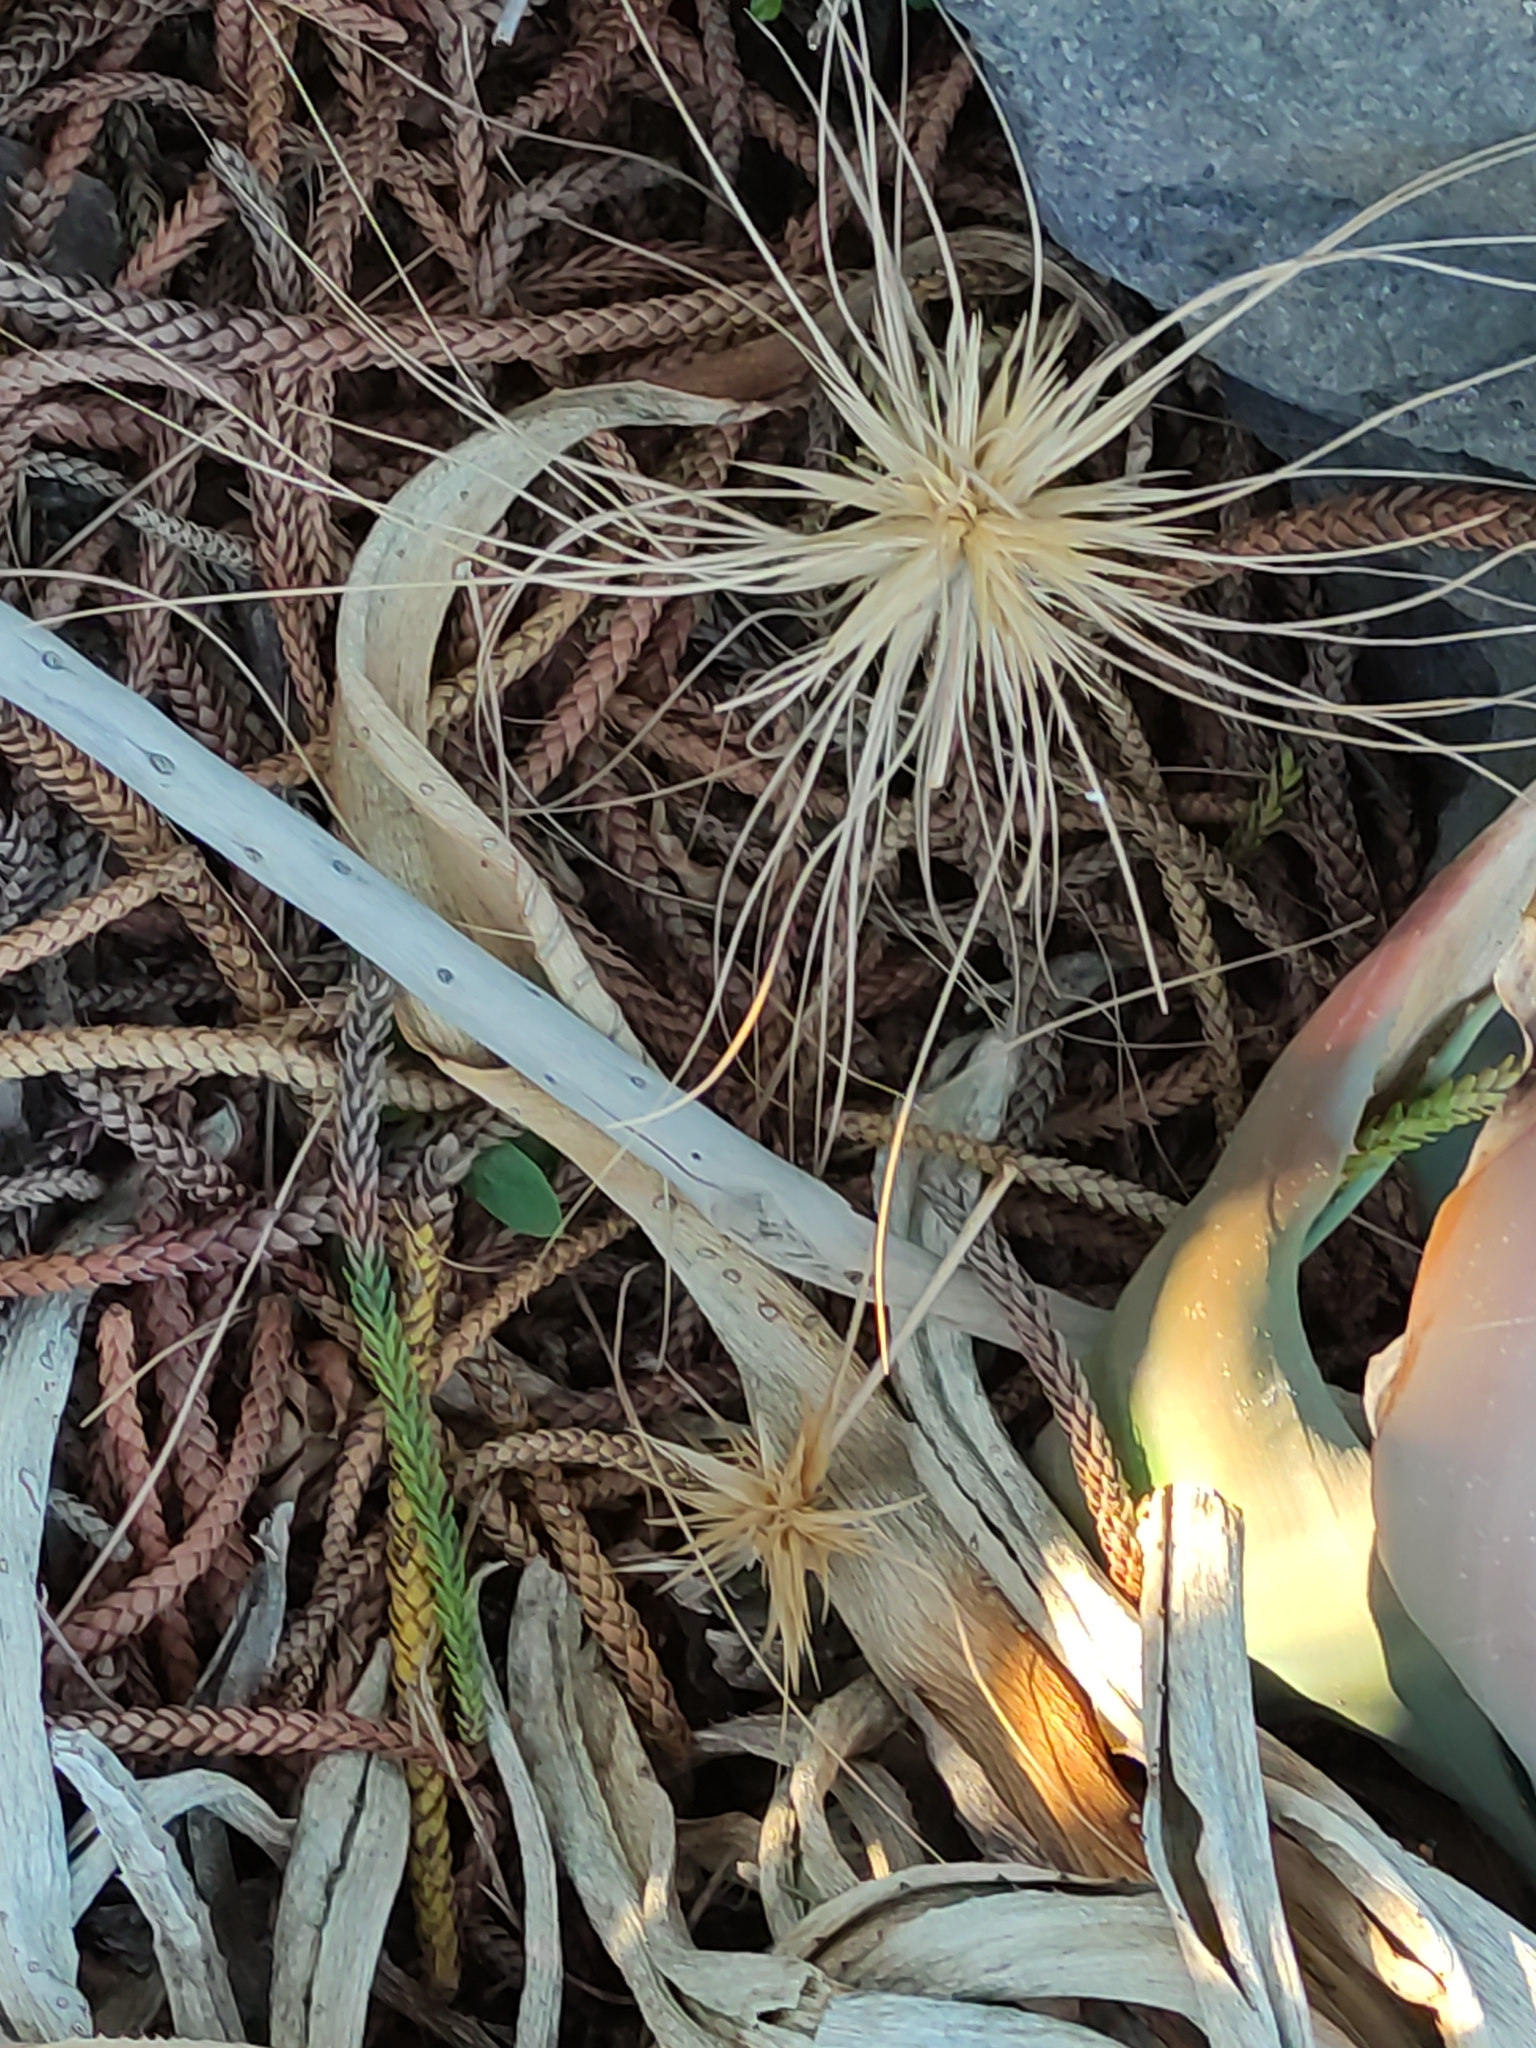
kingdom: Plantae
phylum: Tracheophyta
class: Liliopsida
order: Poales
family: Poaceae
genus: Spinifex
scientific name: Spinifex sericeus
